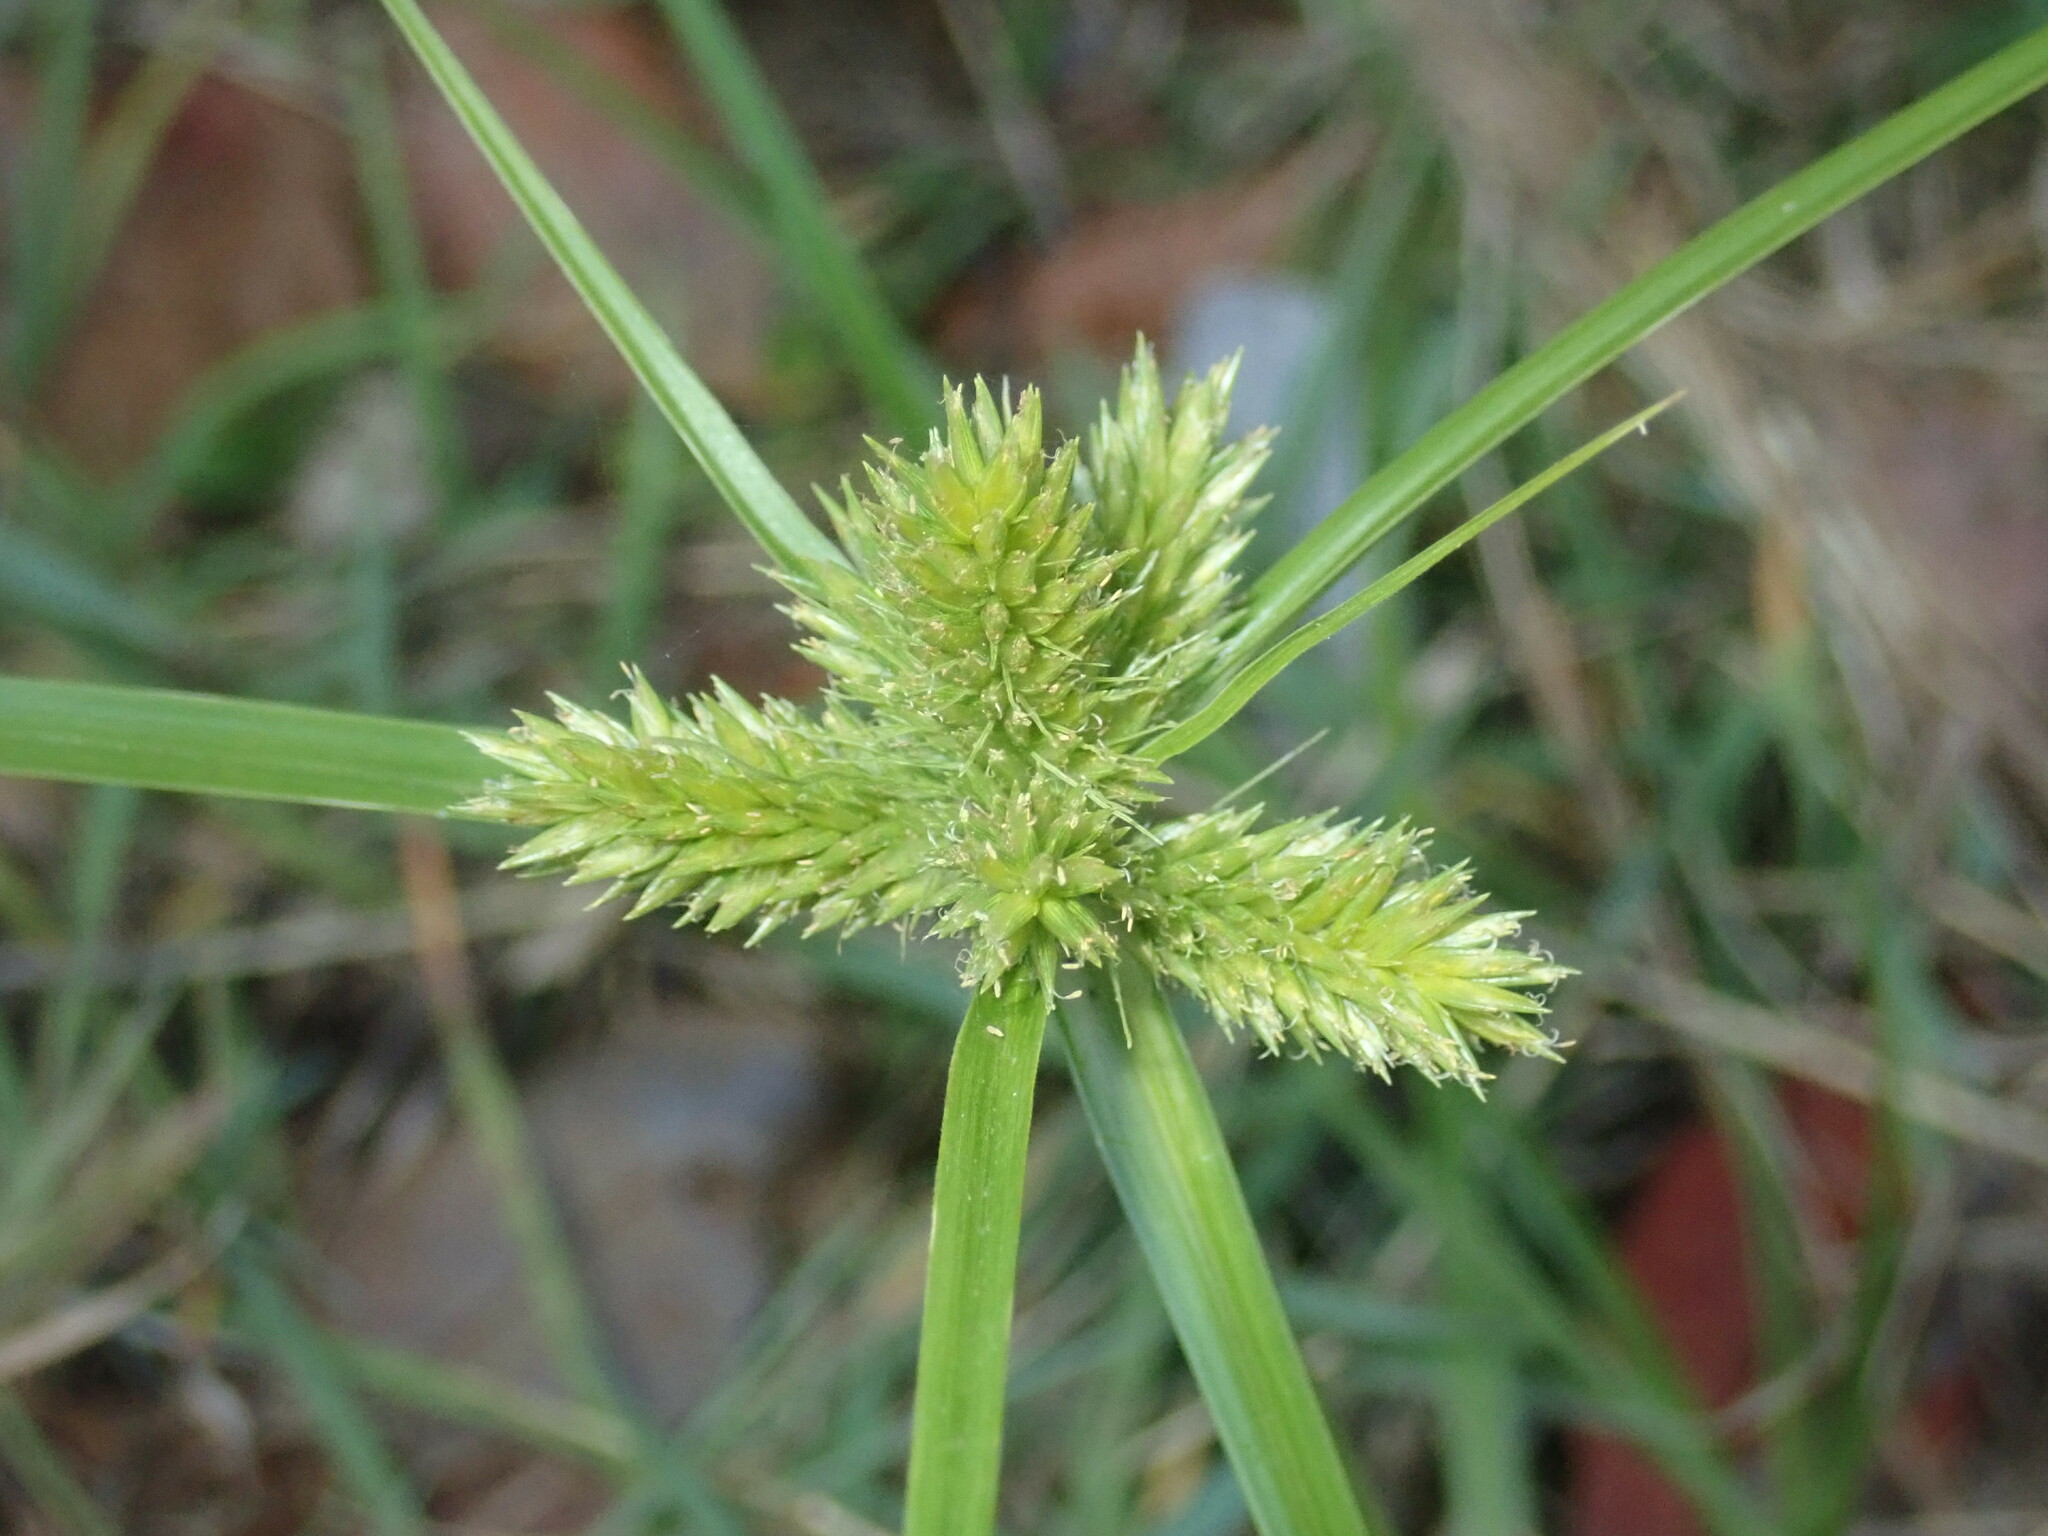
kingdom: Plantae
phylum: Tracheophyta
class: Liliopsida
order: Poales
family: Cyperaceae
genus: Cyperus
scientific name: Cyperus aggregatus
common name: Inflatedscale flatsedge
